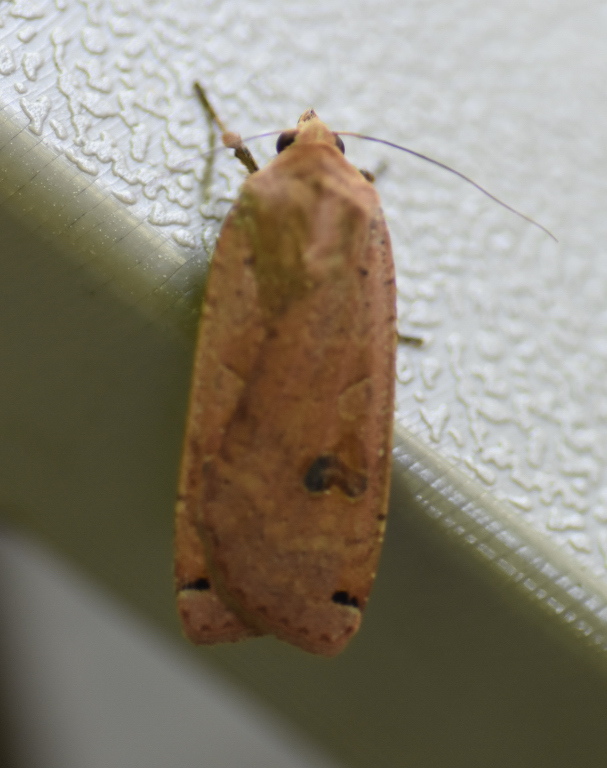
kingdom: Animalia
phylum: Arthropoda
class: Insecta
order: Lepidoptera
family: Noctuidae
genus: Noctua
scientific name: Noctua pronuba
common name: Large yellow underwing
